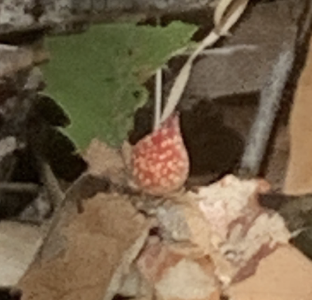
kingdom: Animalia
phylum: Arthropoda
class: Insecta
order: Hymenoptera
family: Cynipidae
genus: Burnettweldia
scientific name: Burnettweldia
